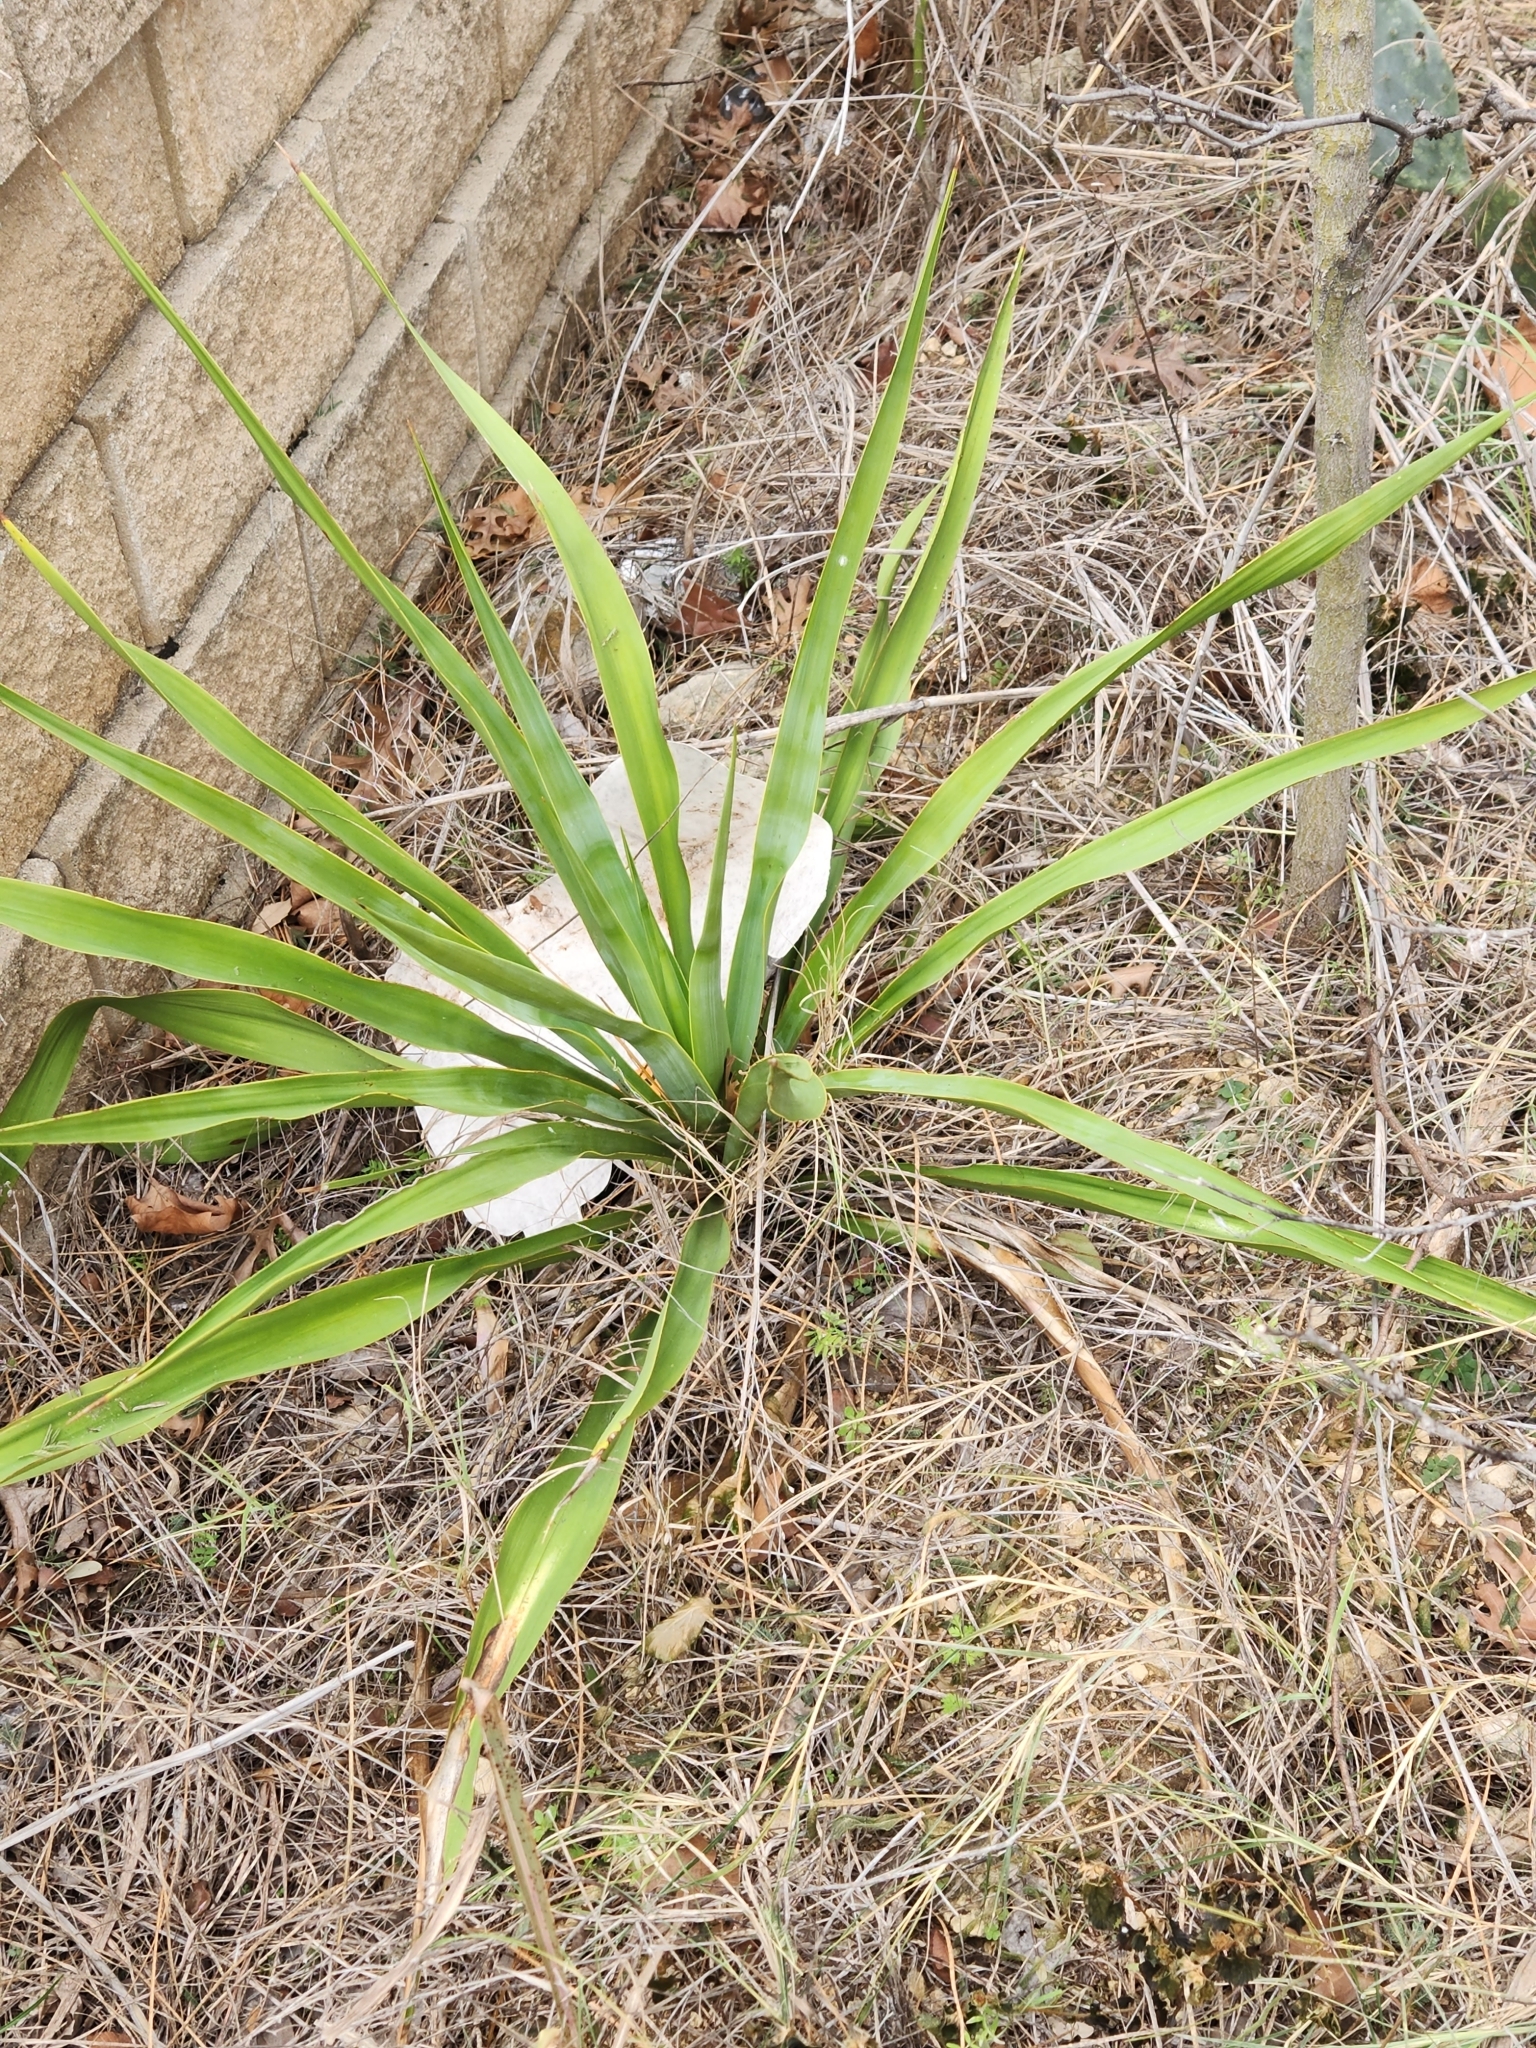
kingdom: Plantae
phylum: Tracheophyta
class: Liliopsida
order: Asparagales
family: Asparagaceae
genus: Yucca
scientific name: Yucca rupicola
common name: Twisted-leaf spanish-dagger
